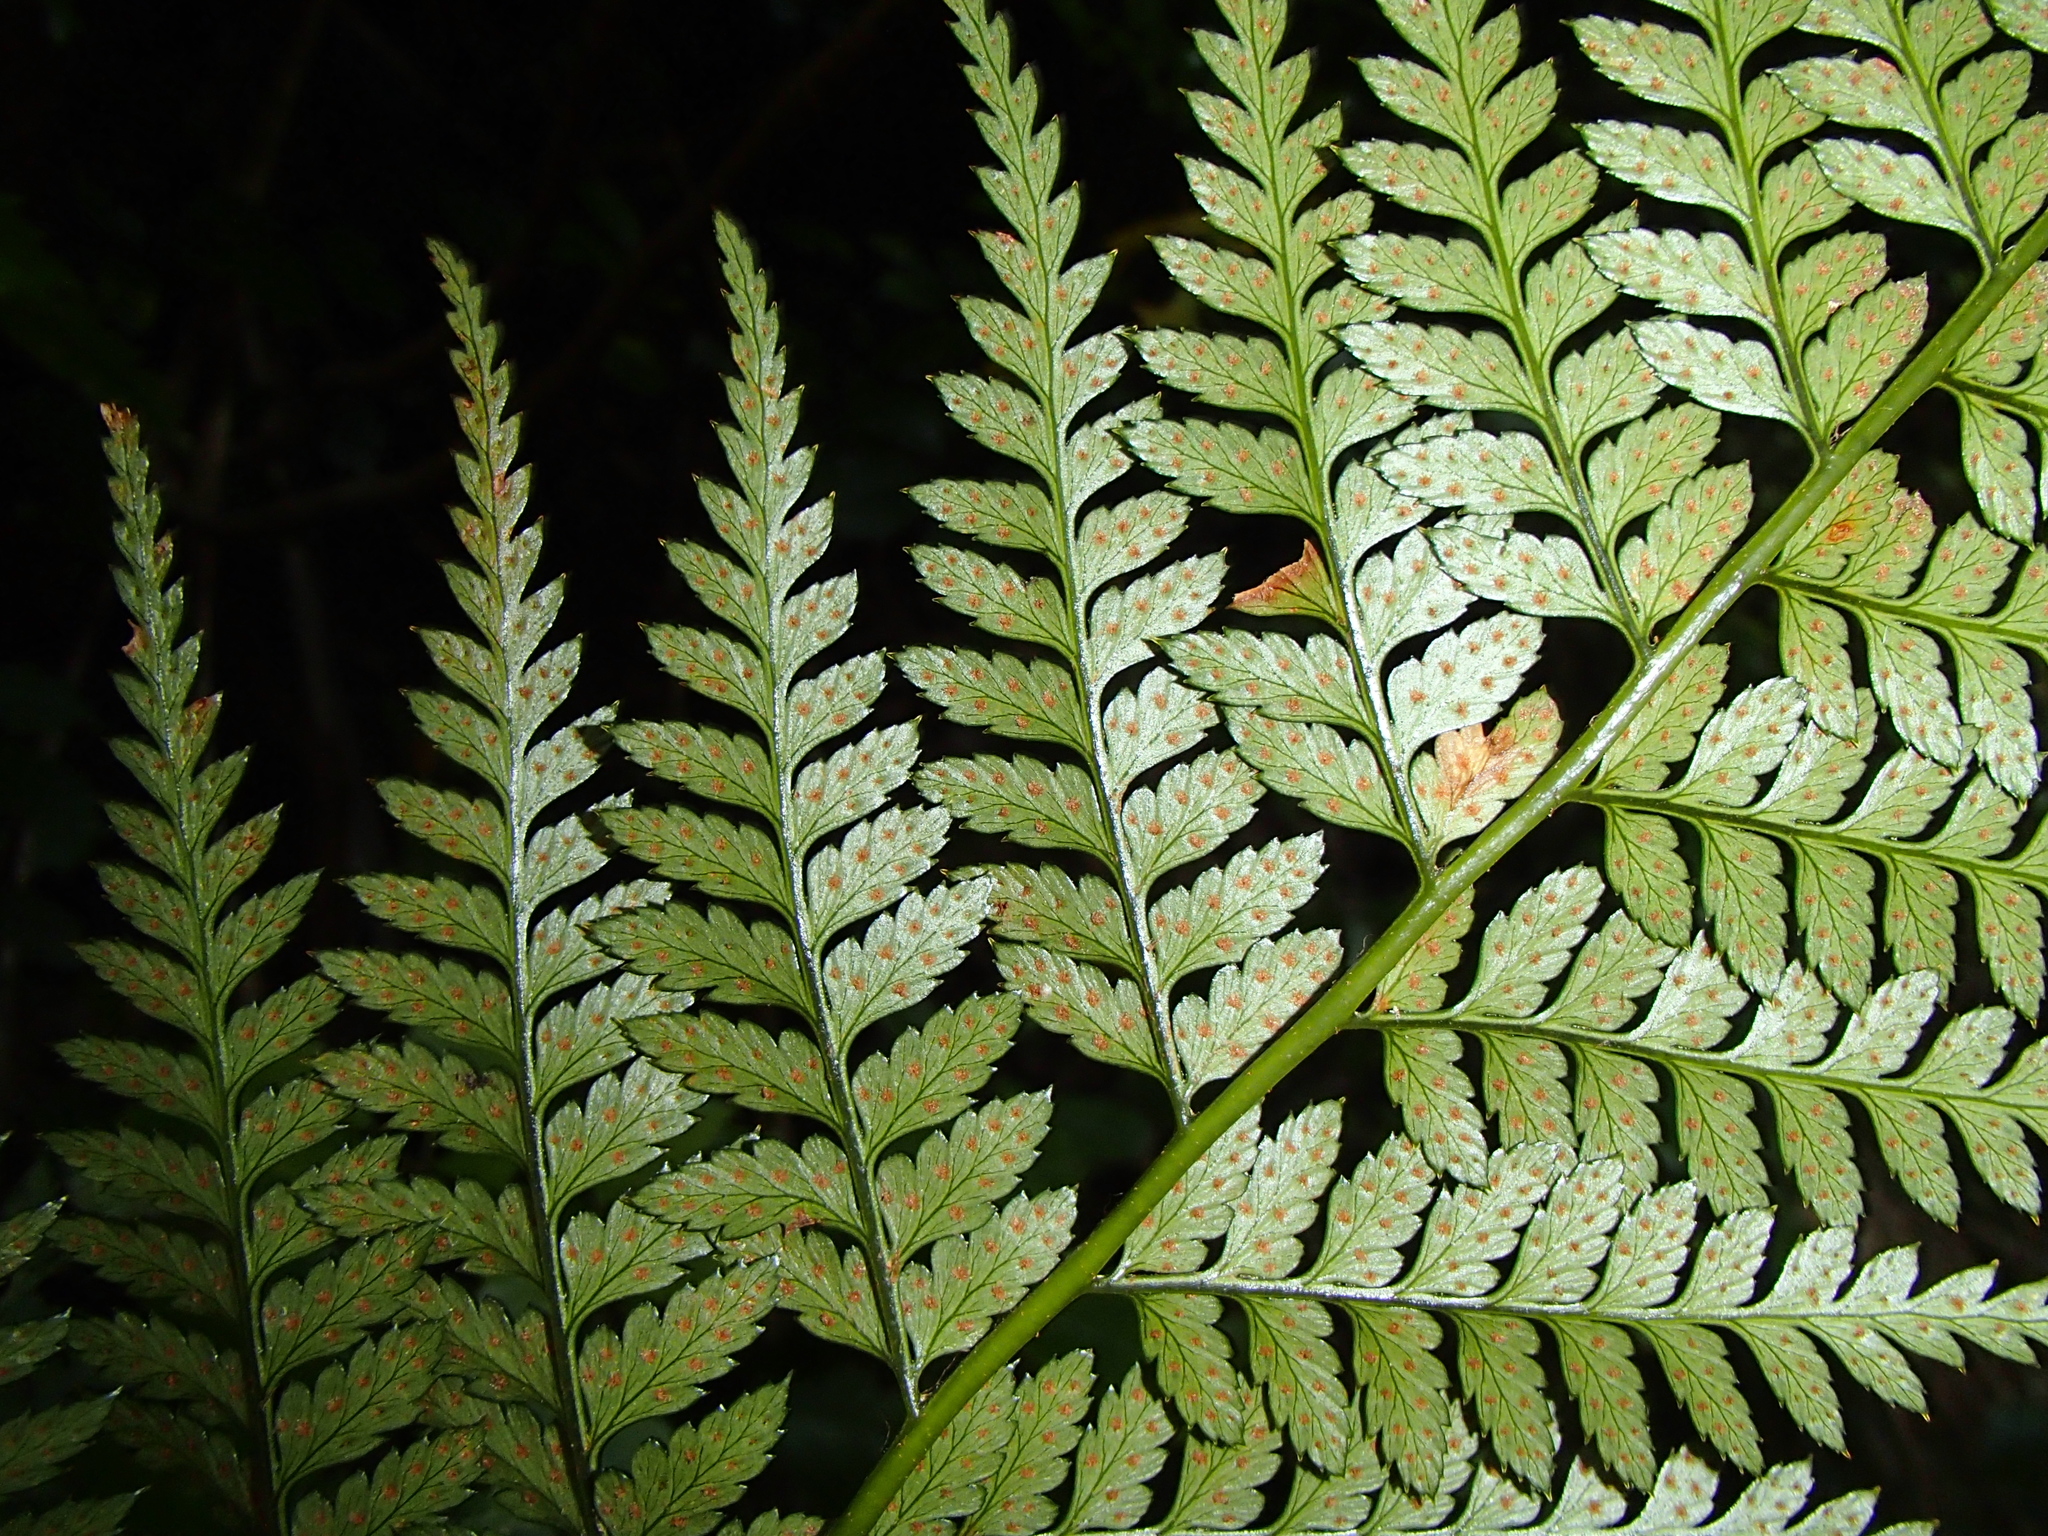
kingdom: Plantae
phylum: Tracheophyta
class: Polypodiopsida
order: Polypodiales
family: Dryopteridaceae
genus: Polystichum
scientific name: Polystichum oculatum
